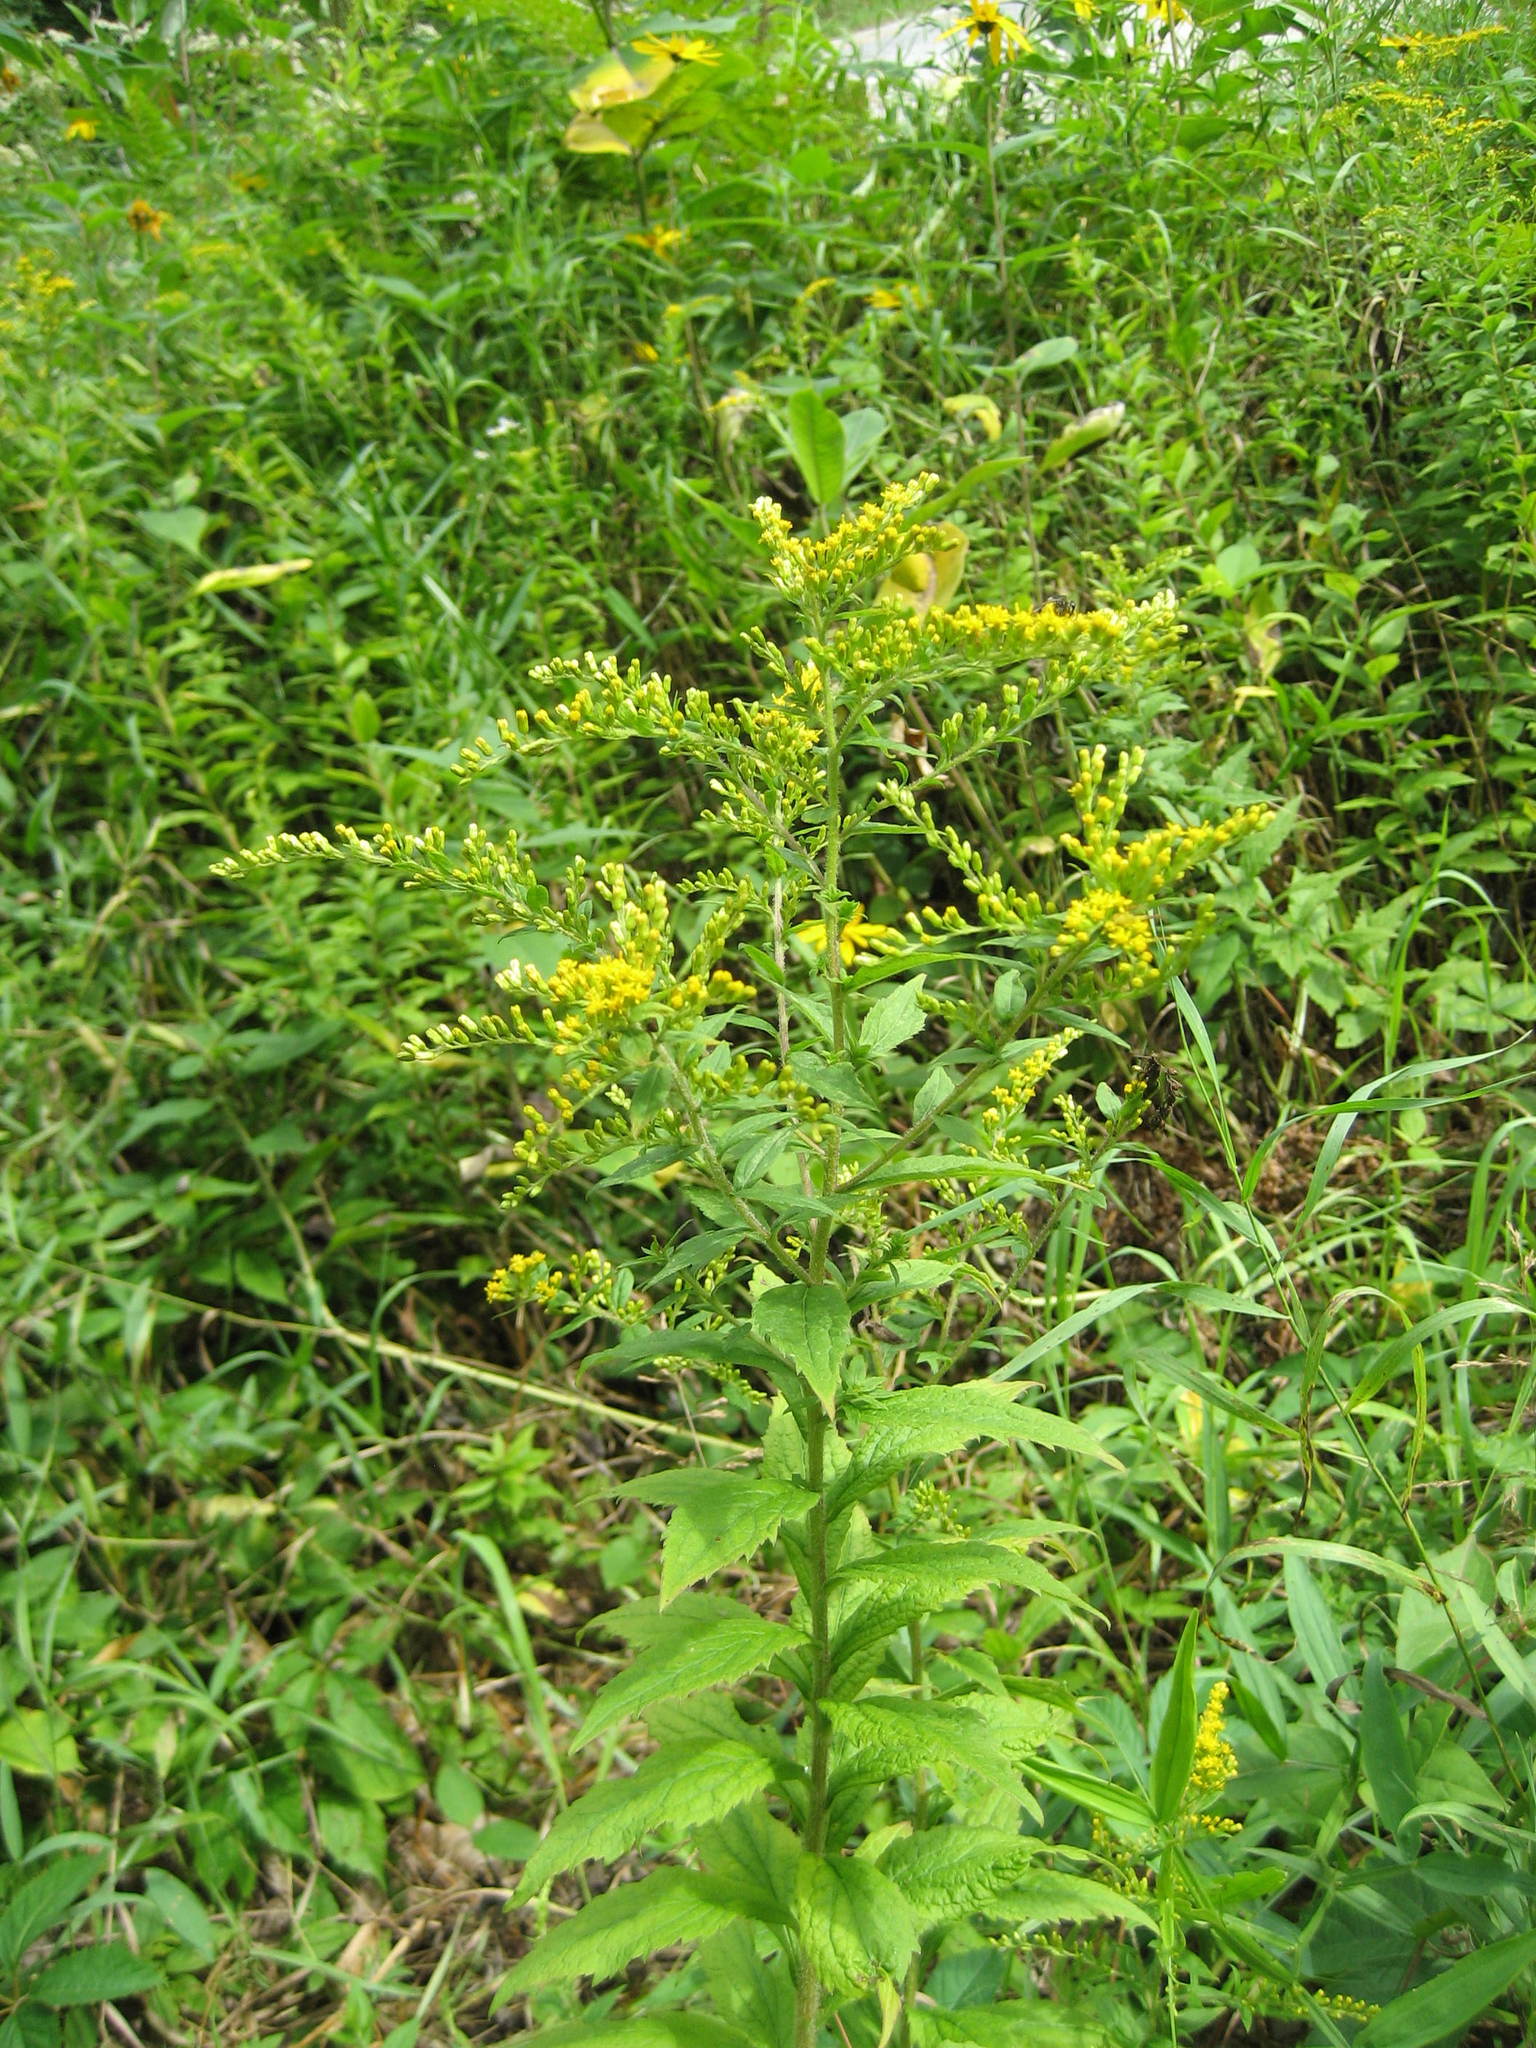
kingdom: Plantae
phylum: Tracheophyta
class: Magnoliopsida
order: Asterales
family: Asteraceae
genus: Solidago
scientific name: Solidago rugosa
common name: Rough-stemmed goldenrod
